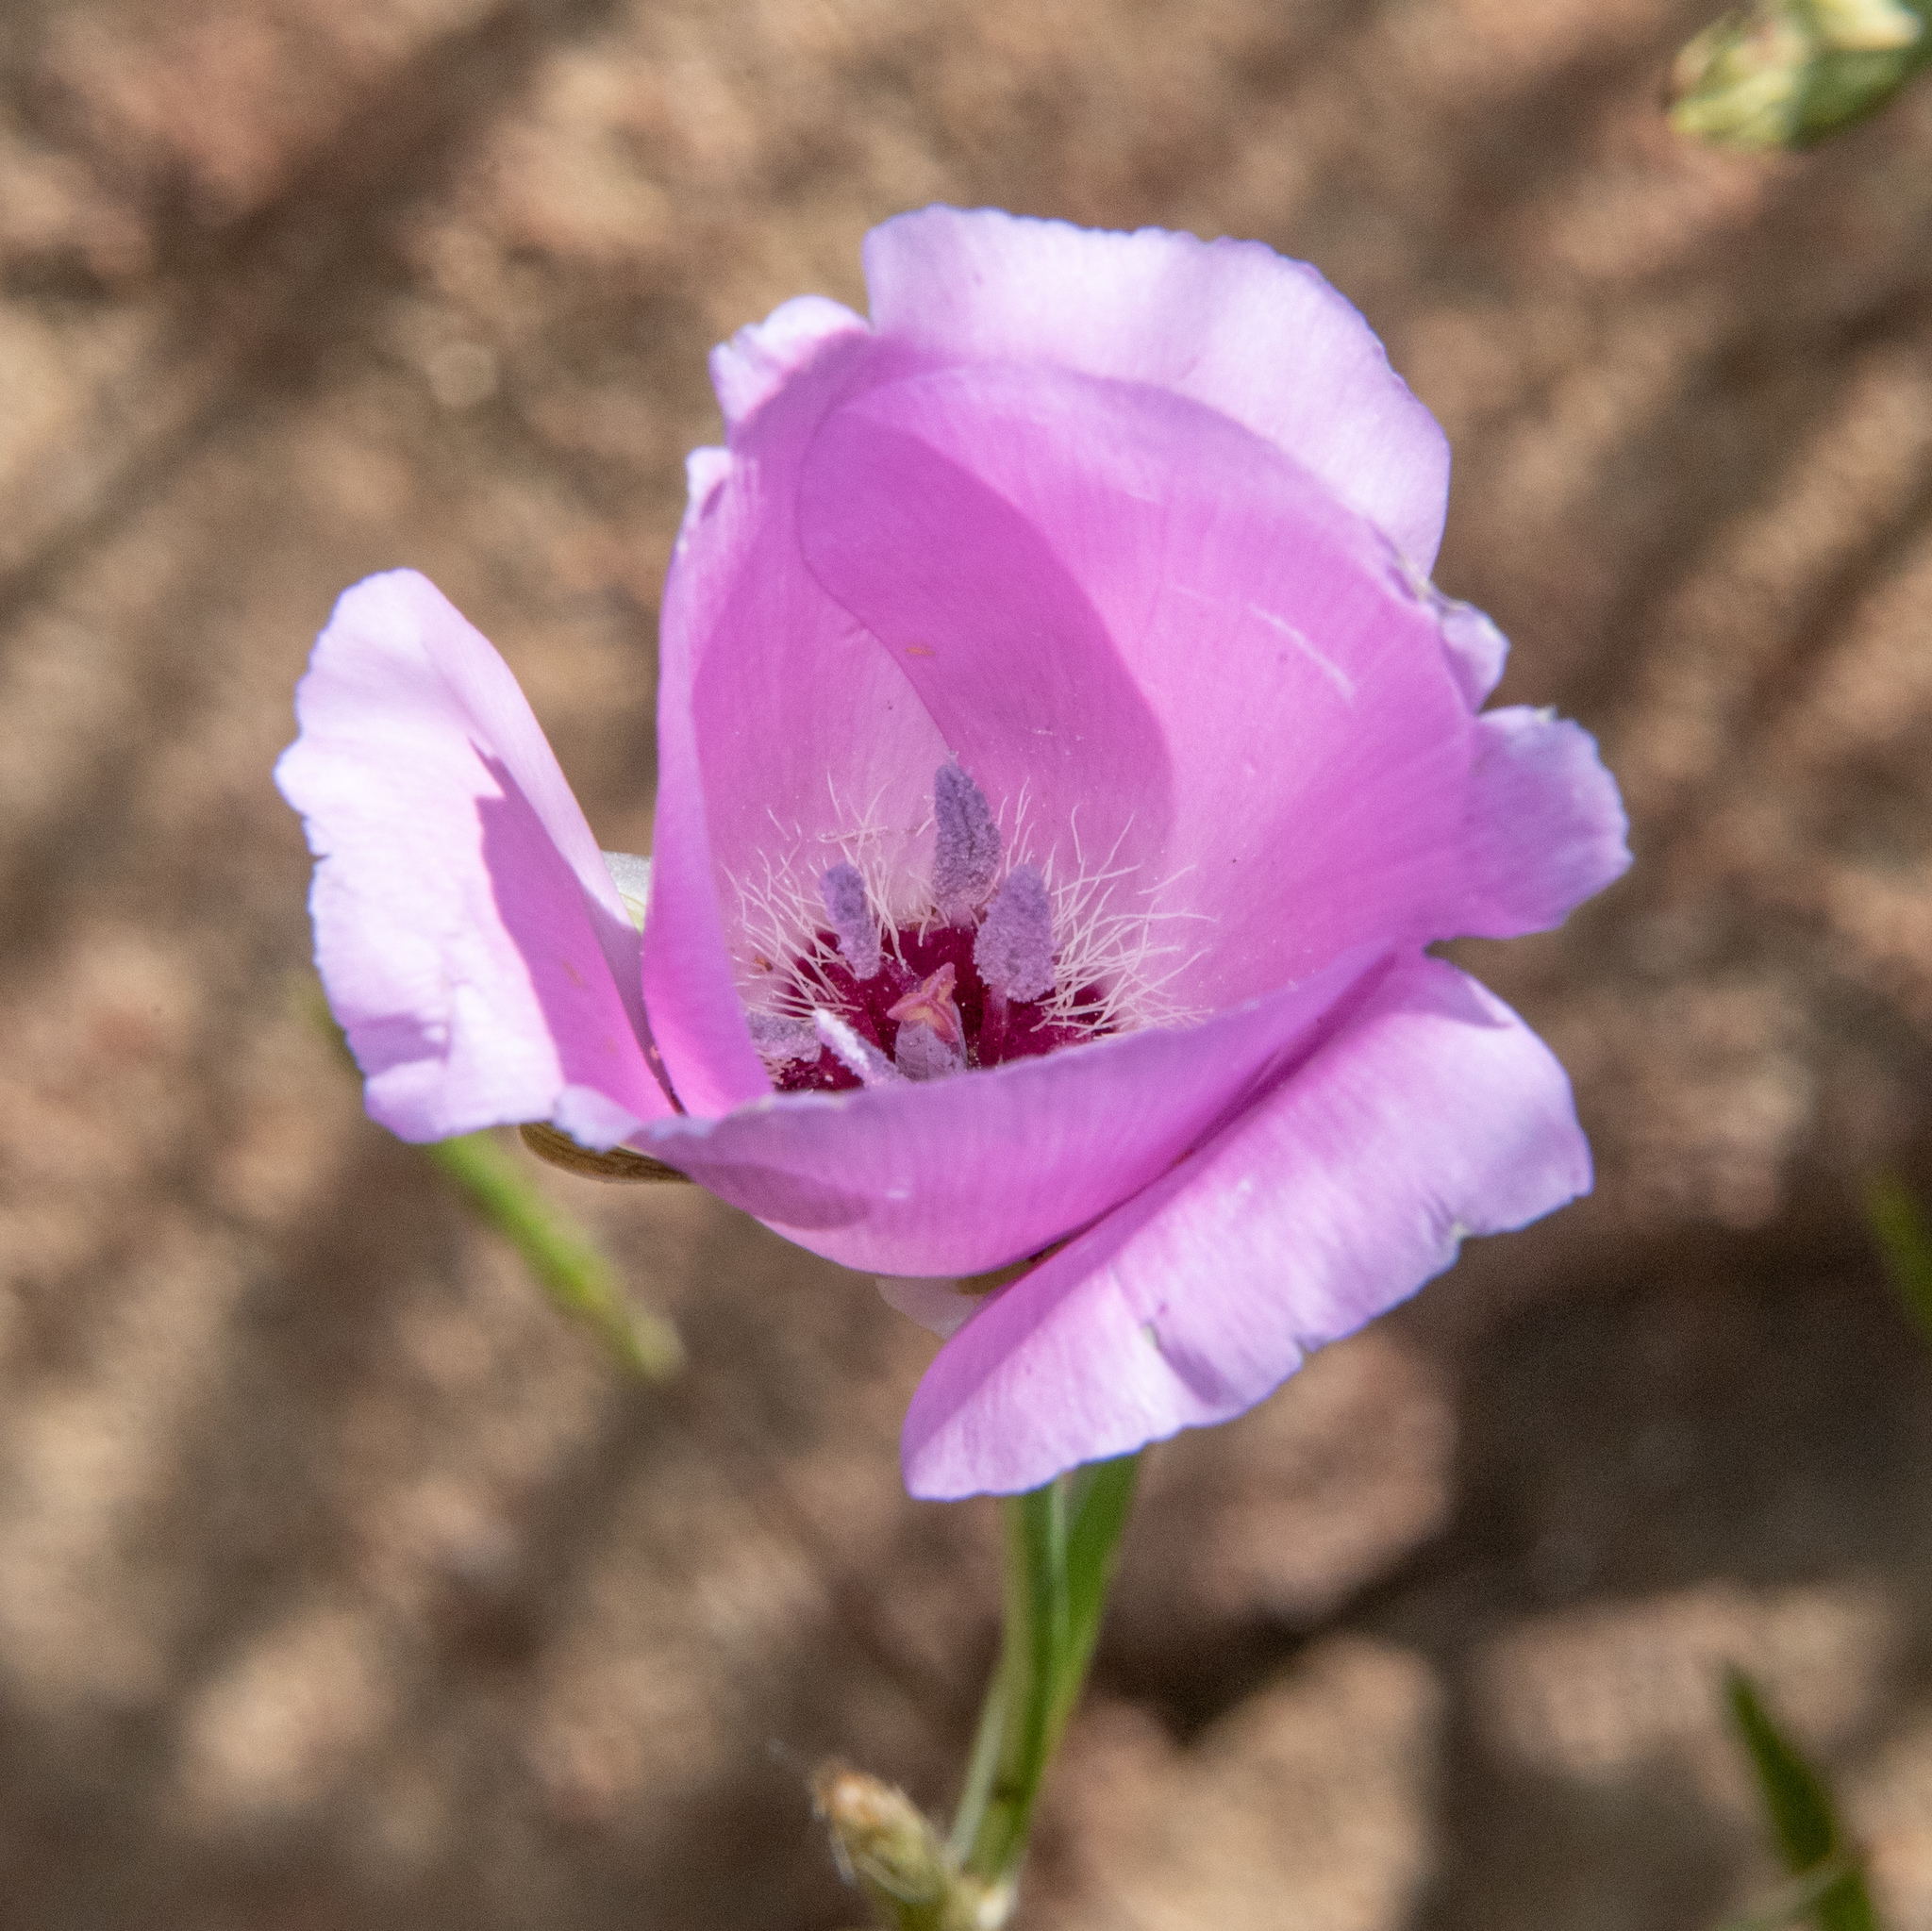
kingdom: Plantae
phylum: Tracheophyta
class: Liliopsida
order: Liliales
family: Liliaceae
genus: Calochortus
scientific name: Calochortus splendens
